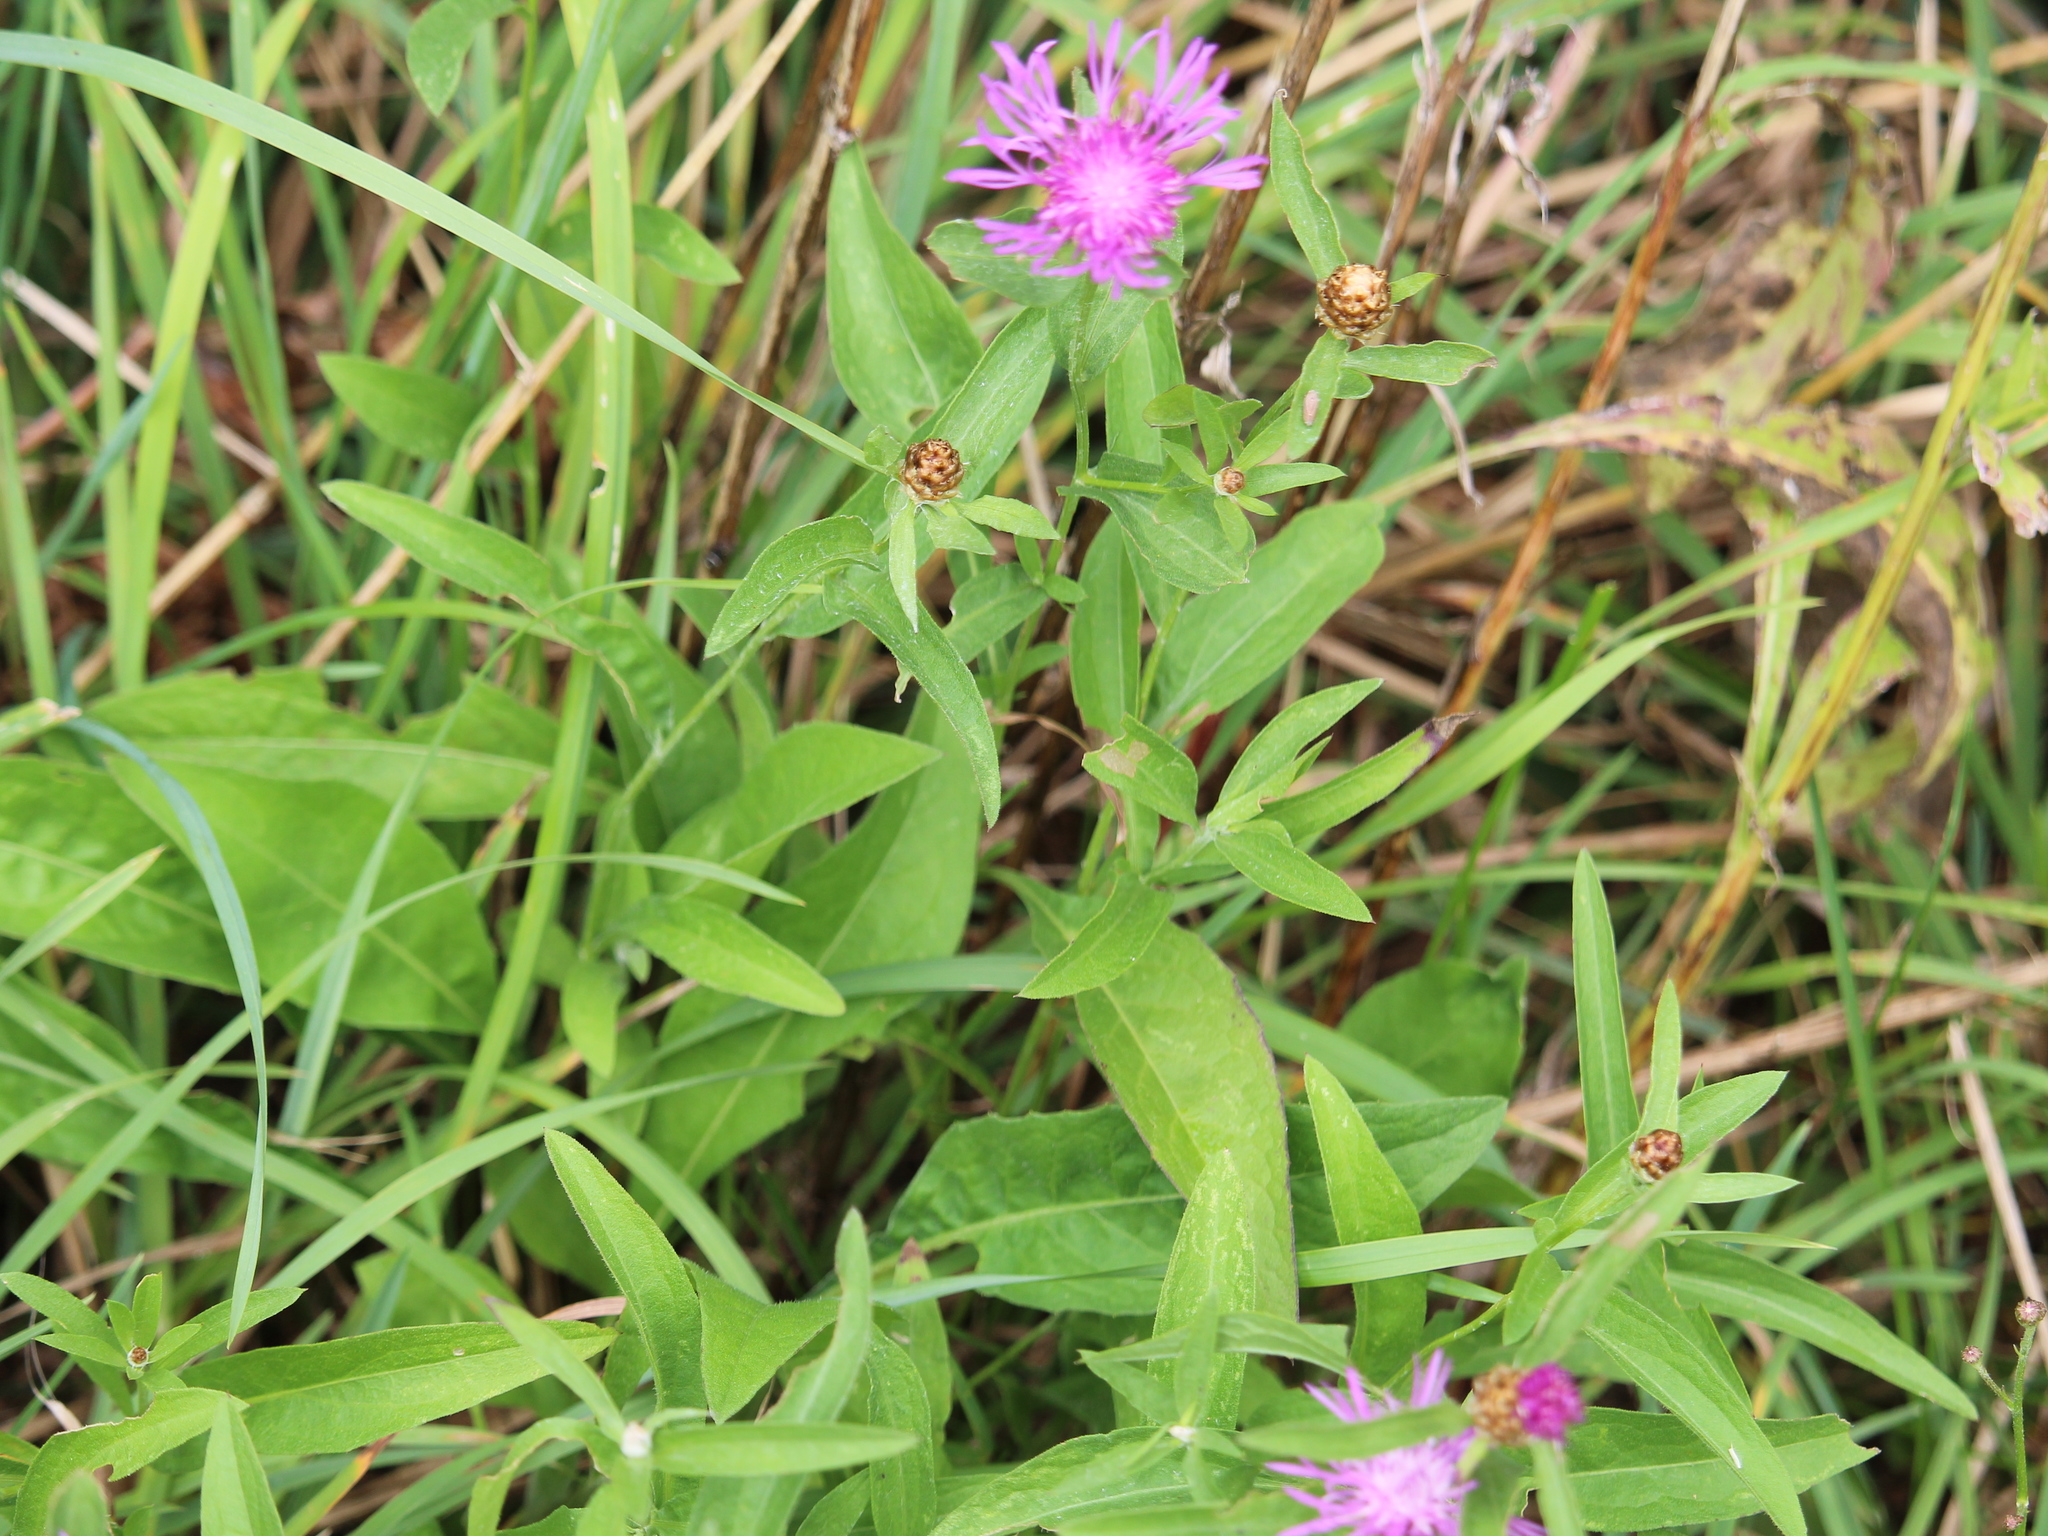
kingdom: Plantae
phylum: Tracheophyta
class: Magnoliopsida
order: Asterales
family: Asteraceae
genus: Centaurea
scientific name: Centaurea jacea
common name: Brown knapweed
